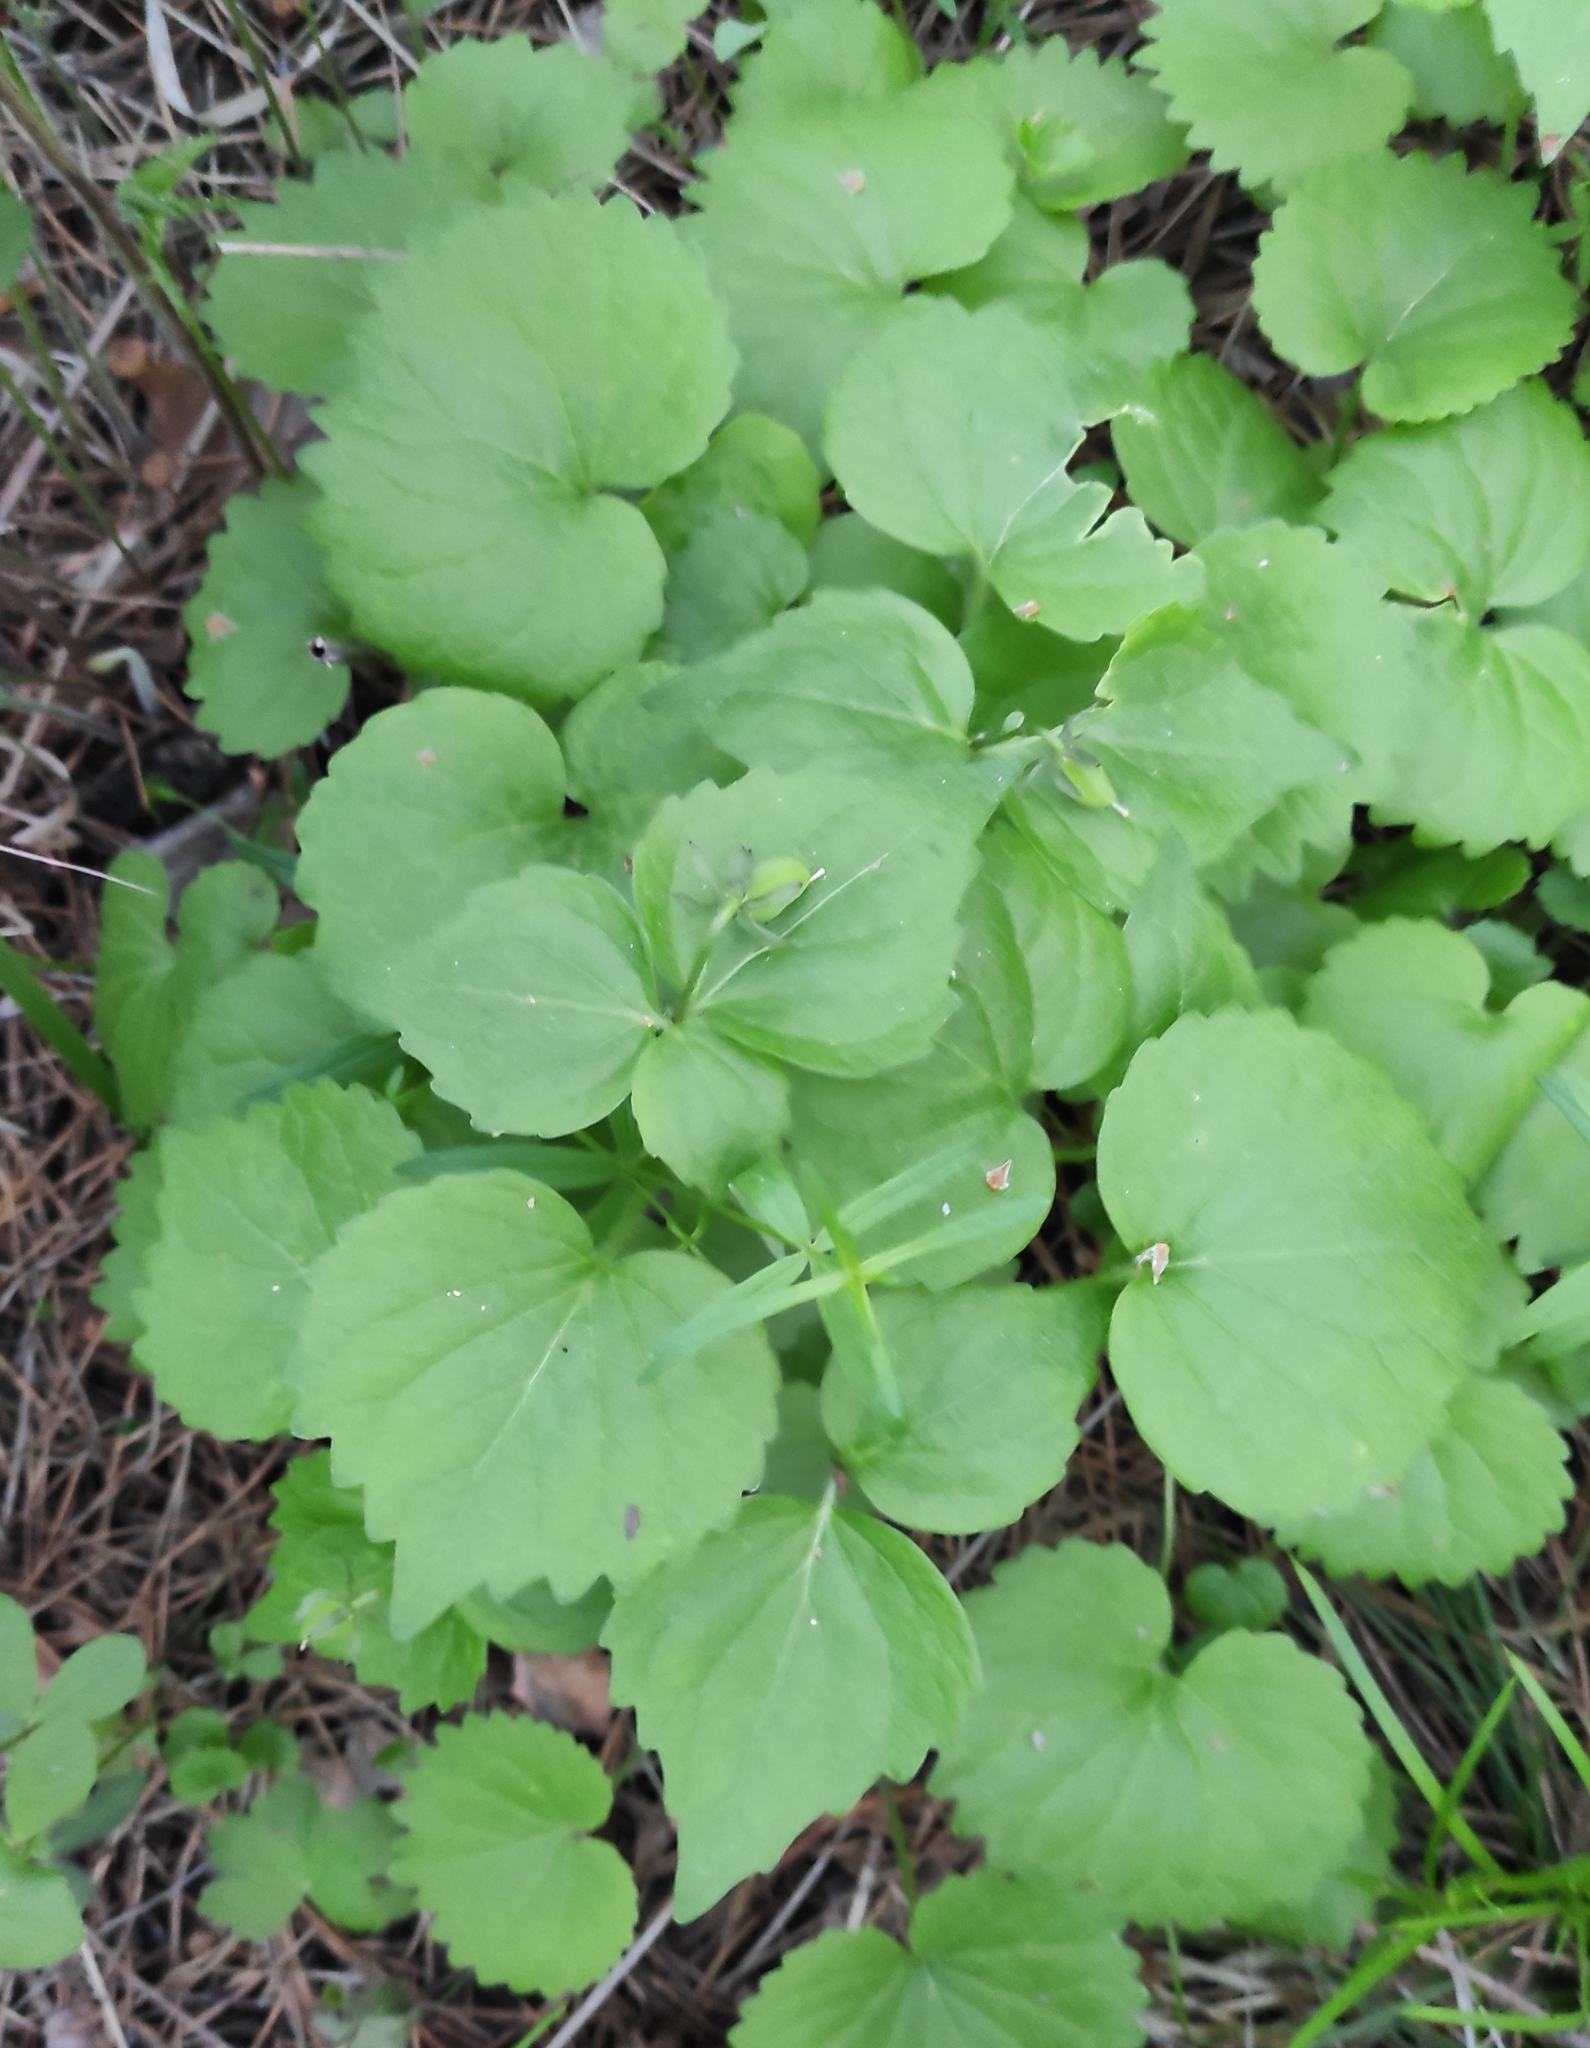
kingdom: Plantae
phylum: Tracheophyta
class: Magnoliopsida
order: Malpighiales
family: Violaceae
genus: Viola
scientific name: Viola uniflora
